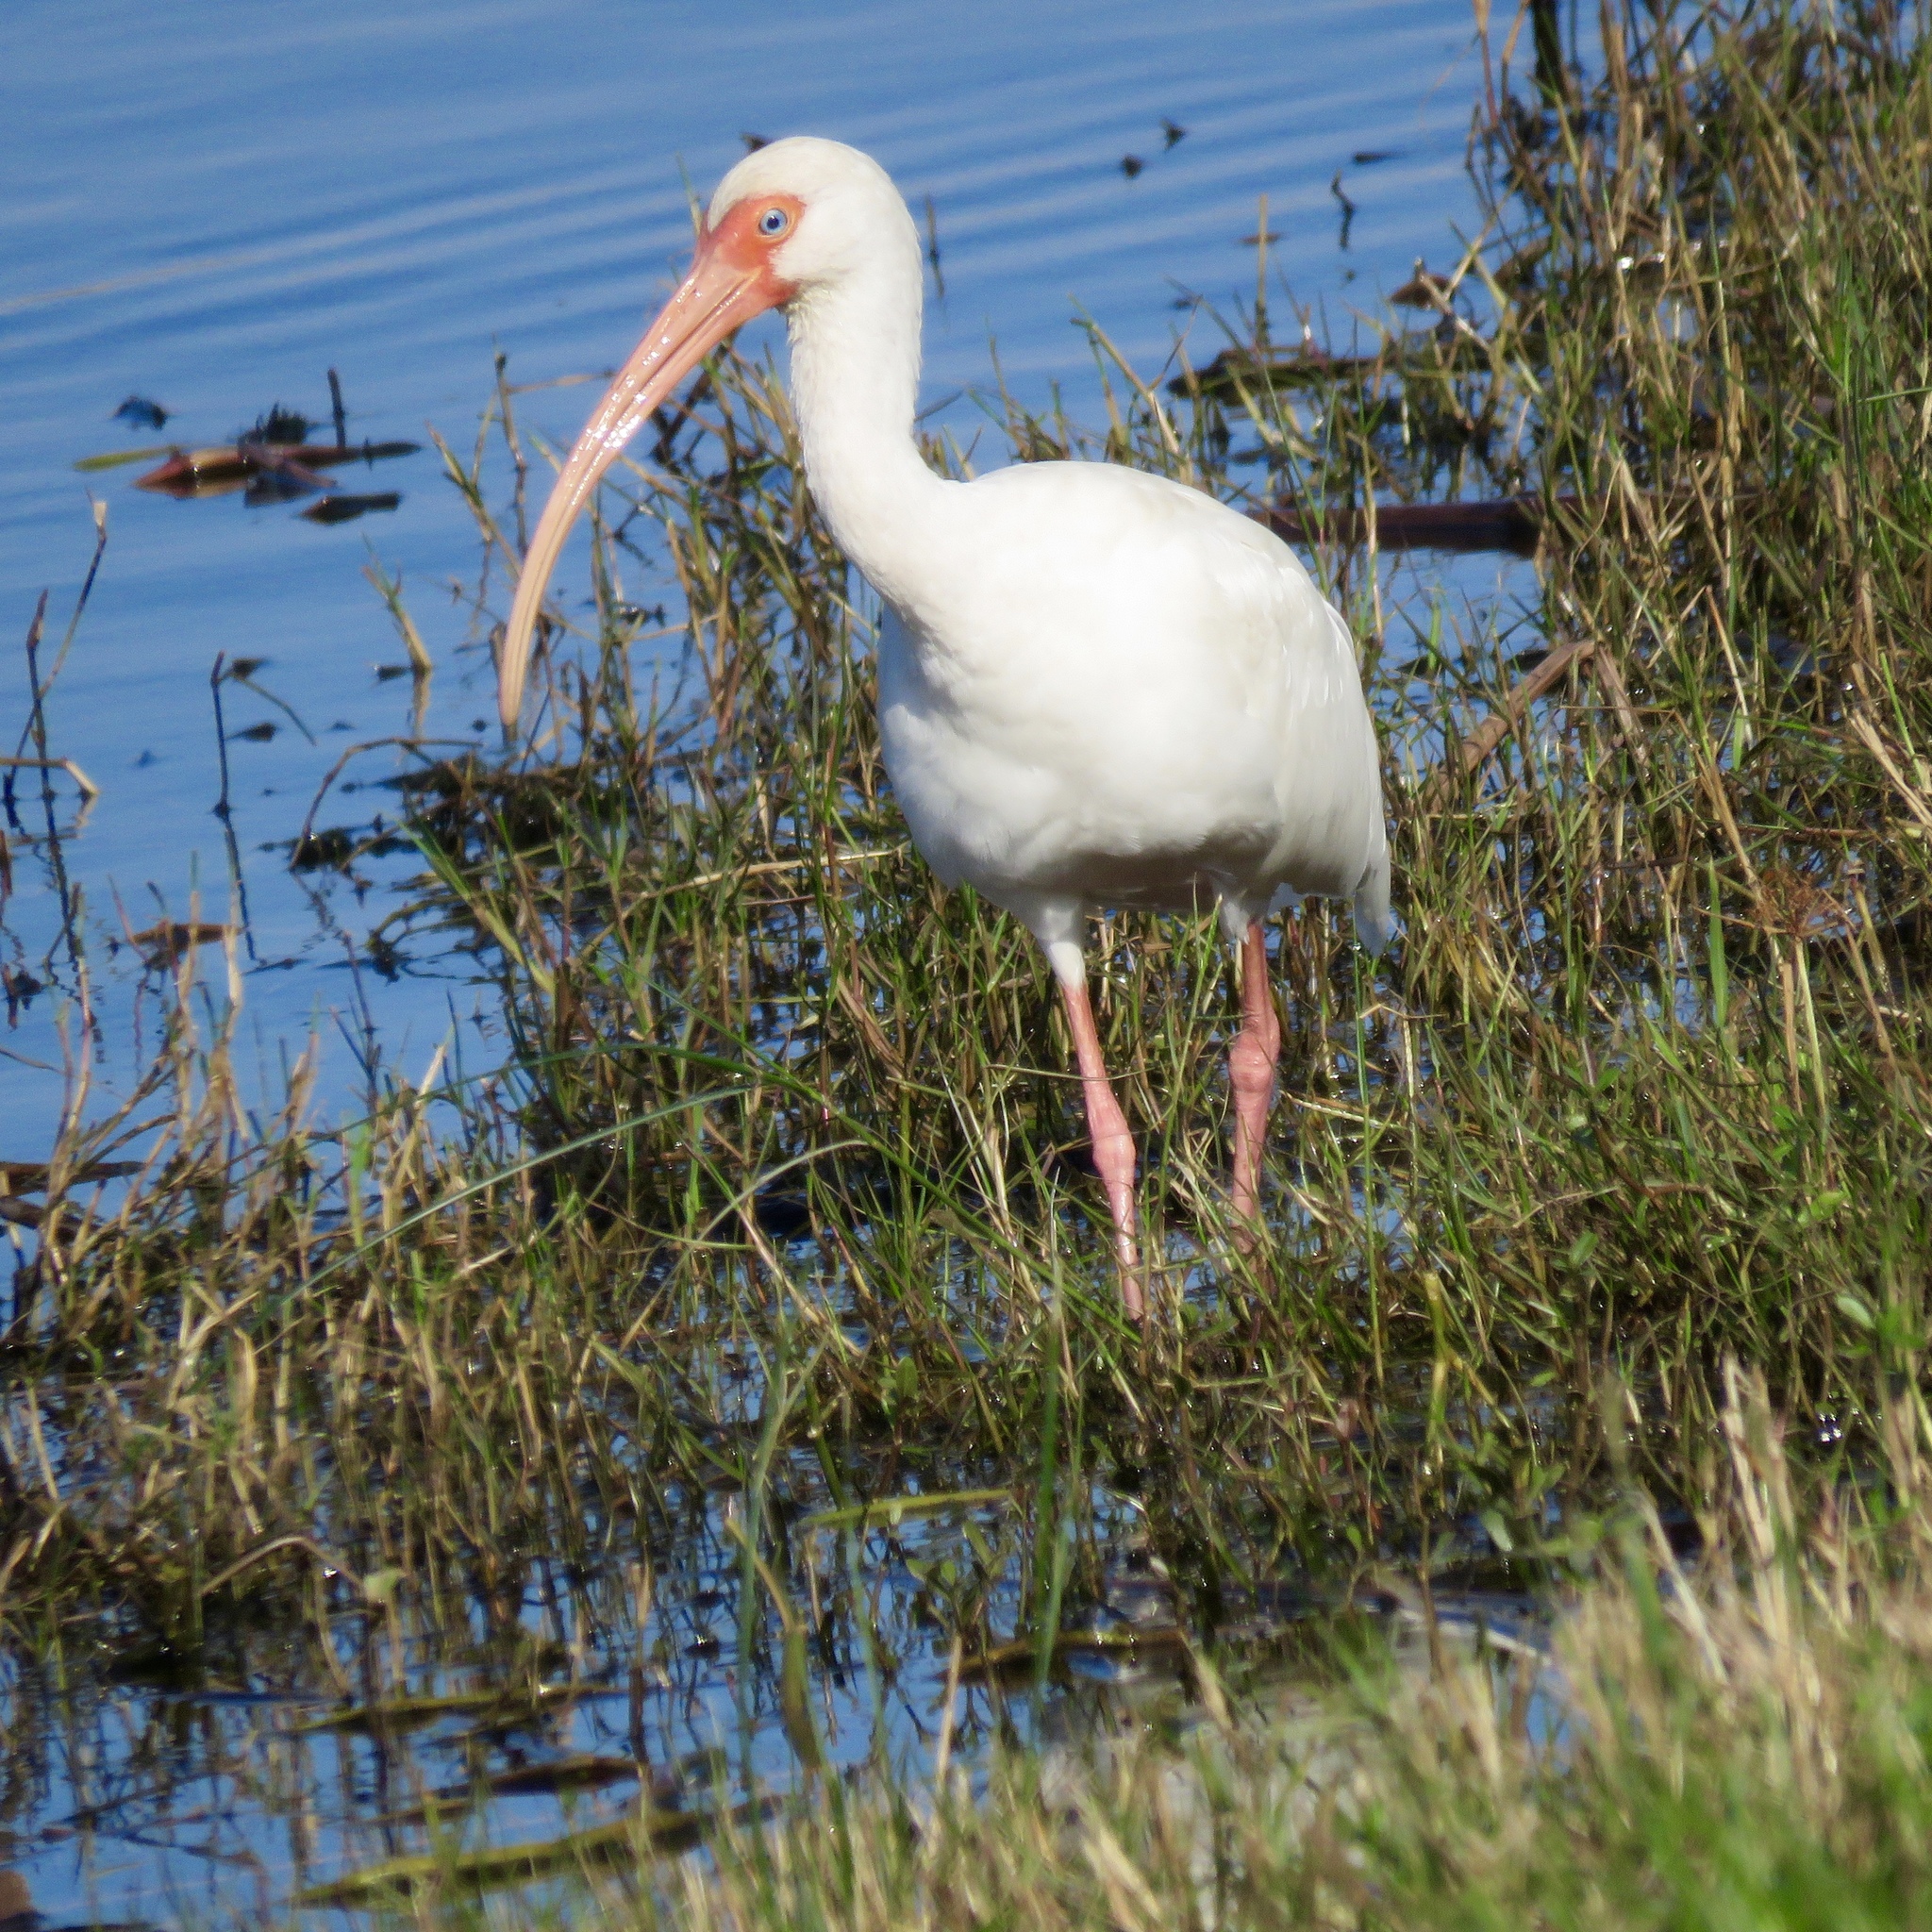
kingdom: Animalia
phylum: Chordata
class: Aves
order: Pelecaniformes
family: Threskiornithidae
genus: Eudocimus
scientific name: Eudocimus albus
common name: White ibis
